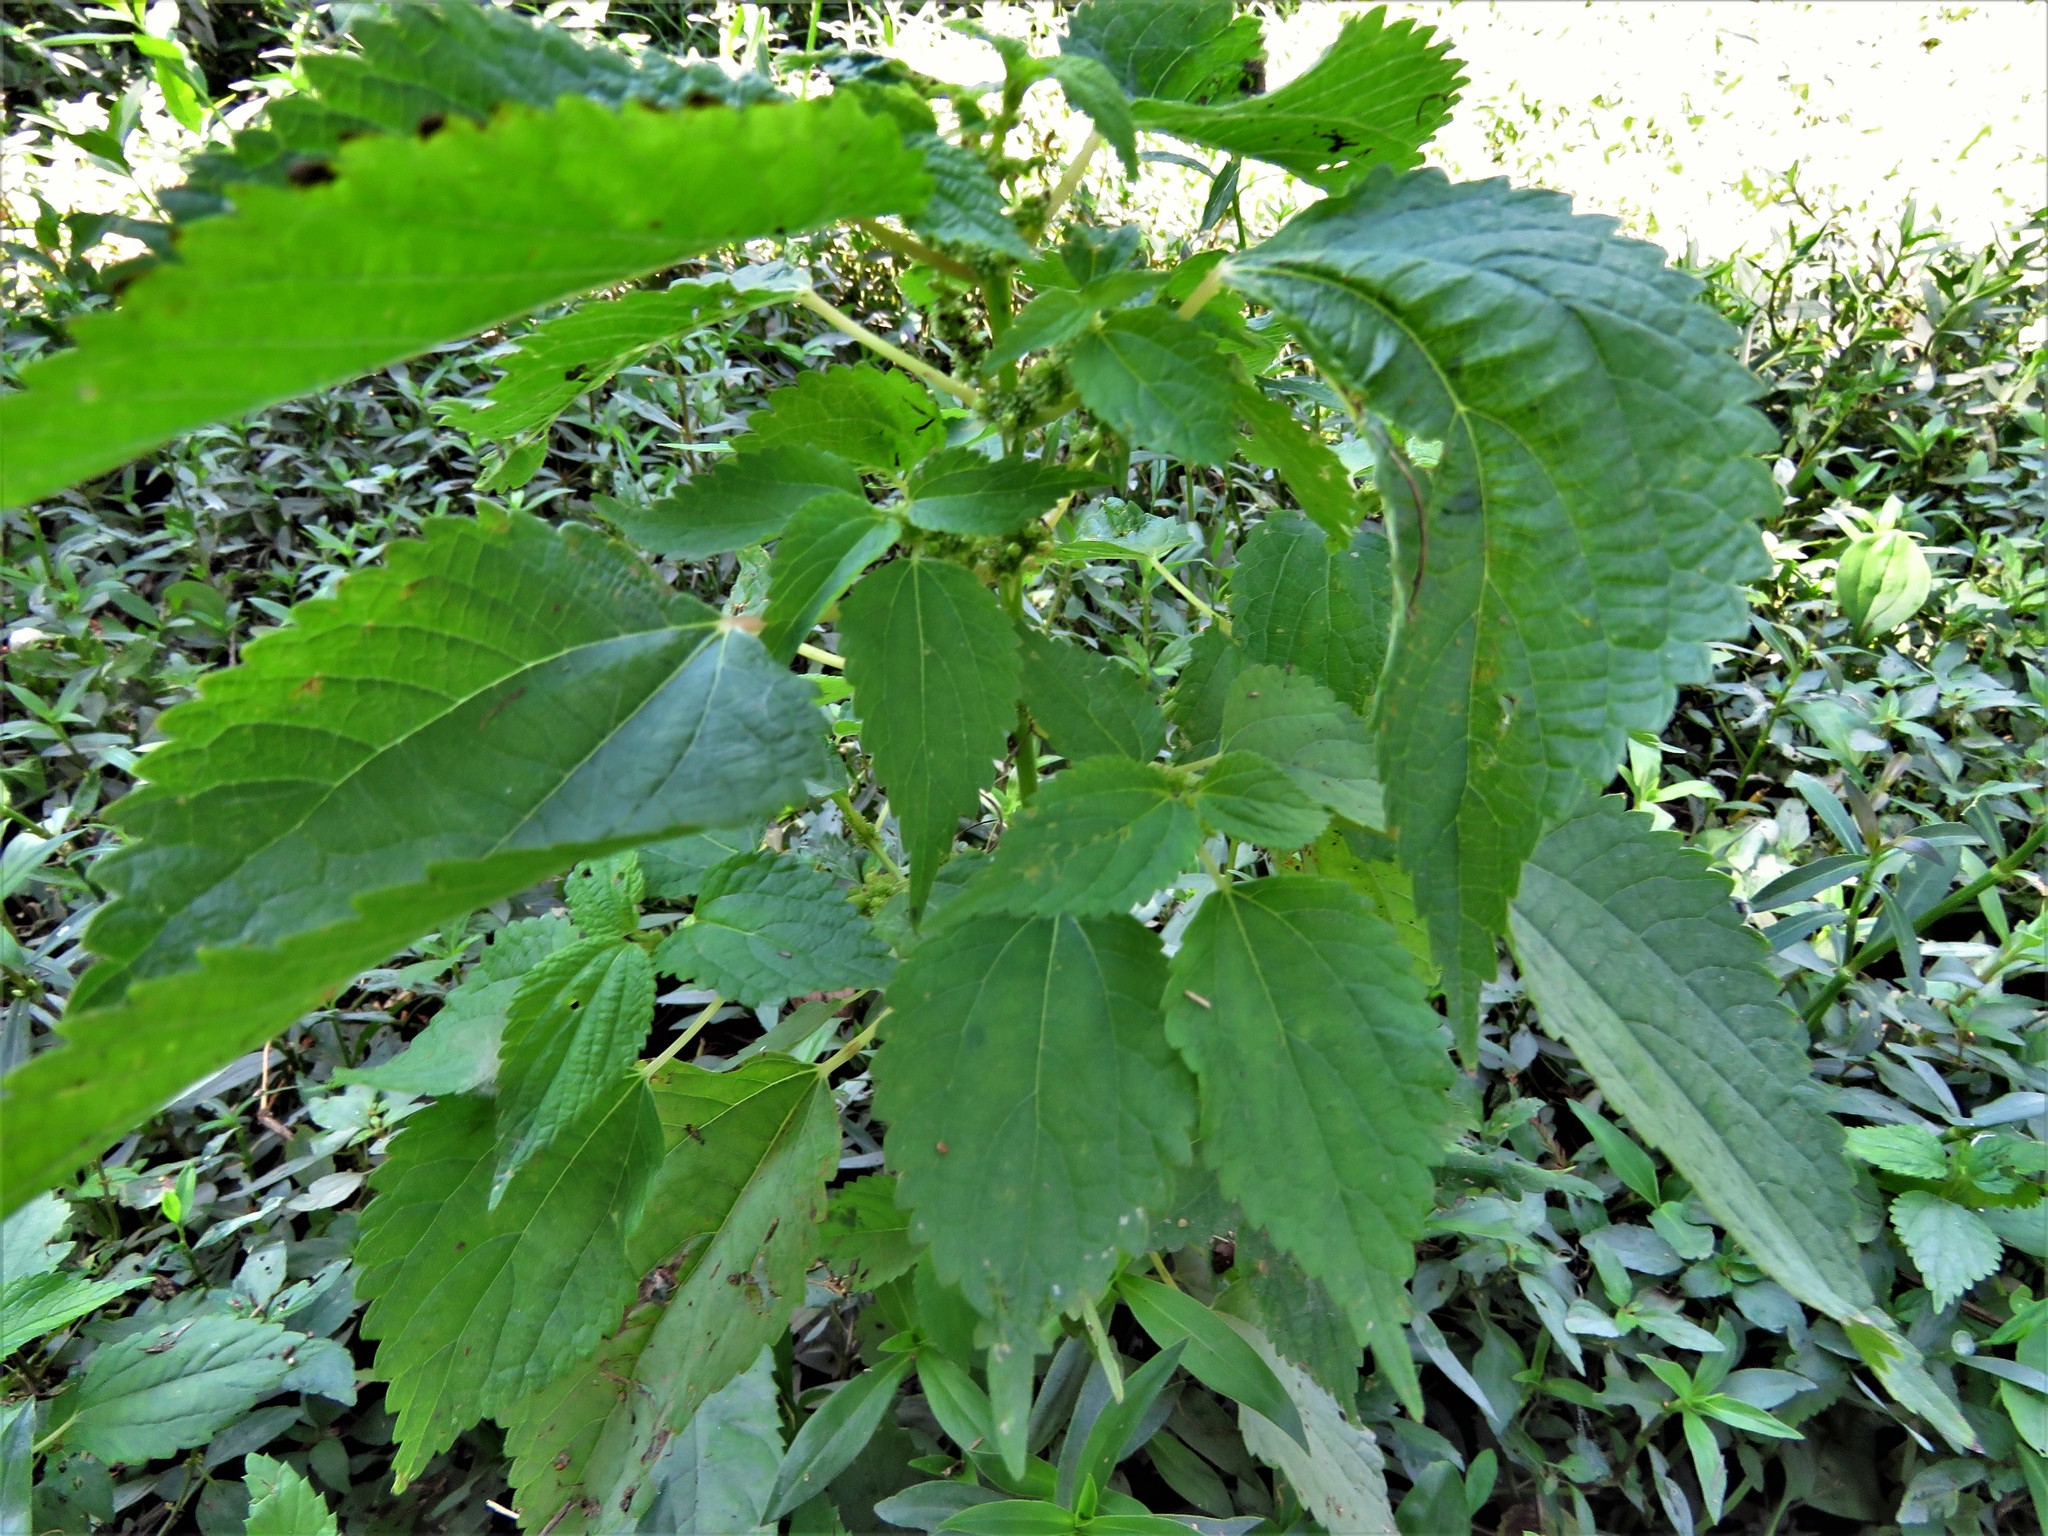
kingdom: Plantae
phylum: Tracheophyta
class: Magnoliopsida
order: Rosales
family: Urticaceae
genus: Boehmeria
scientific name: Boehmeria cylindrica
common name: Bog-hemp
